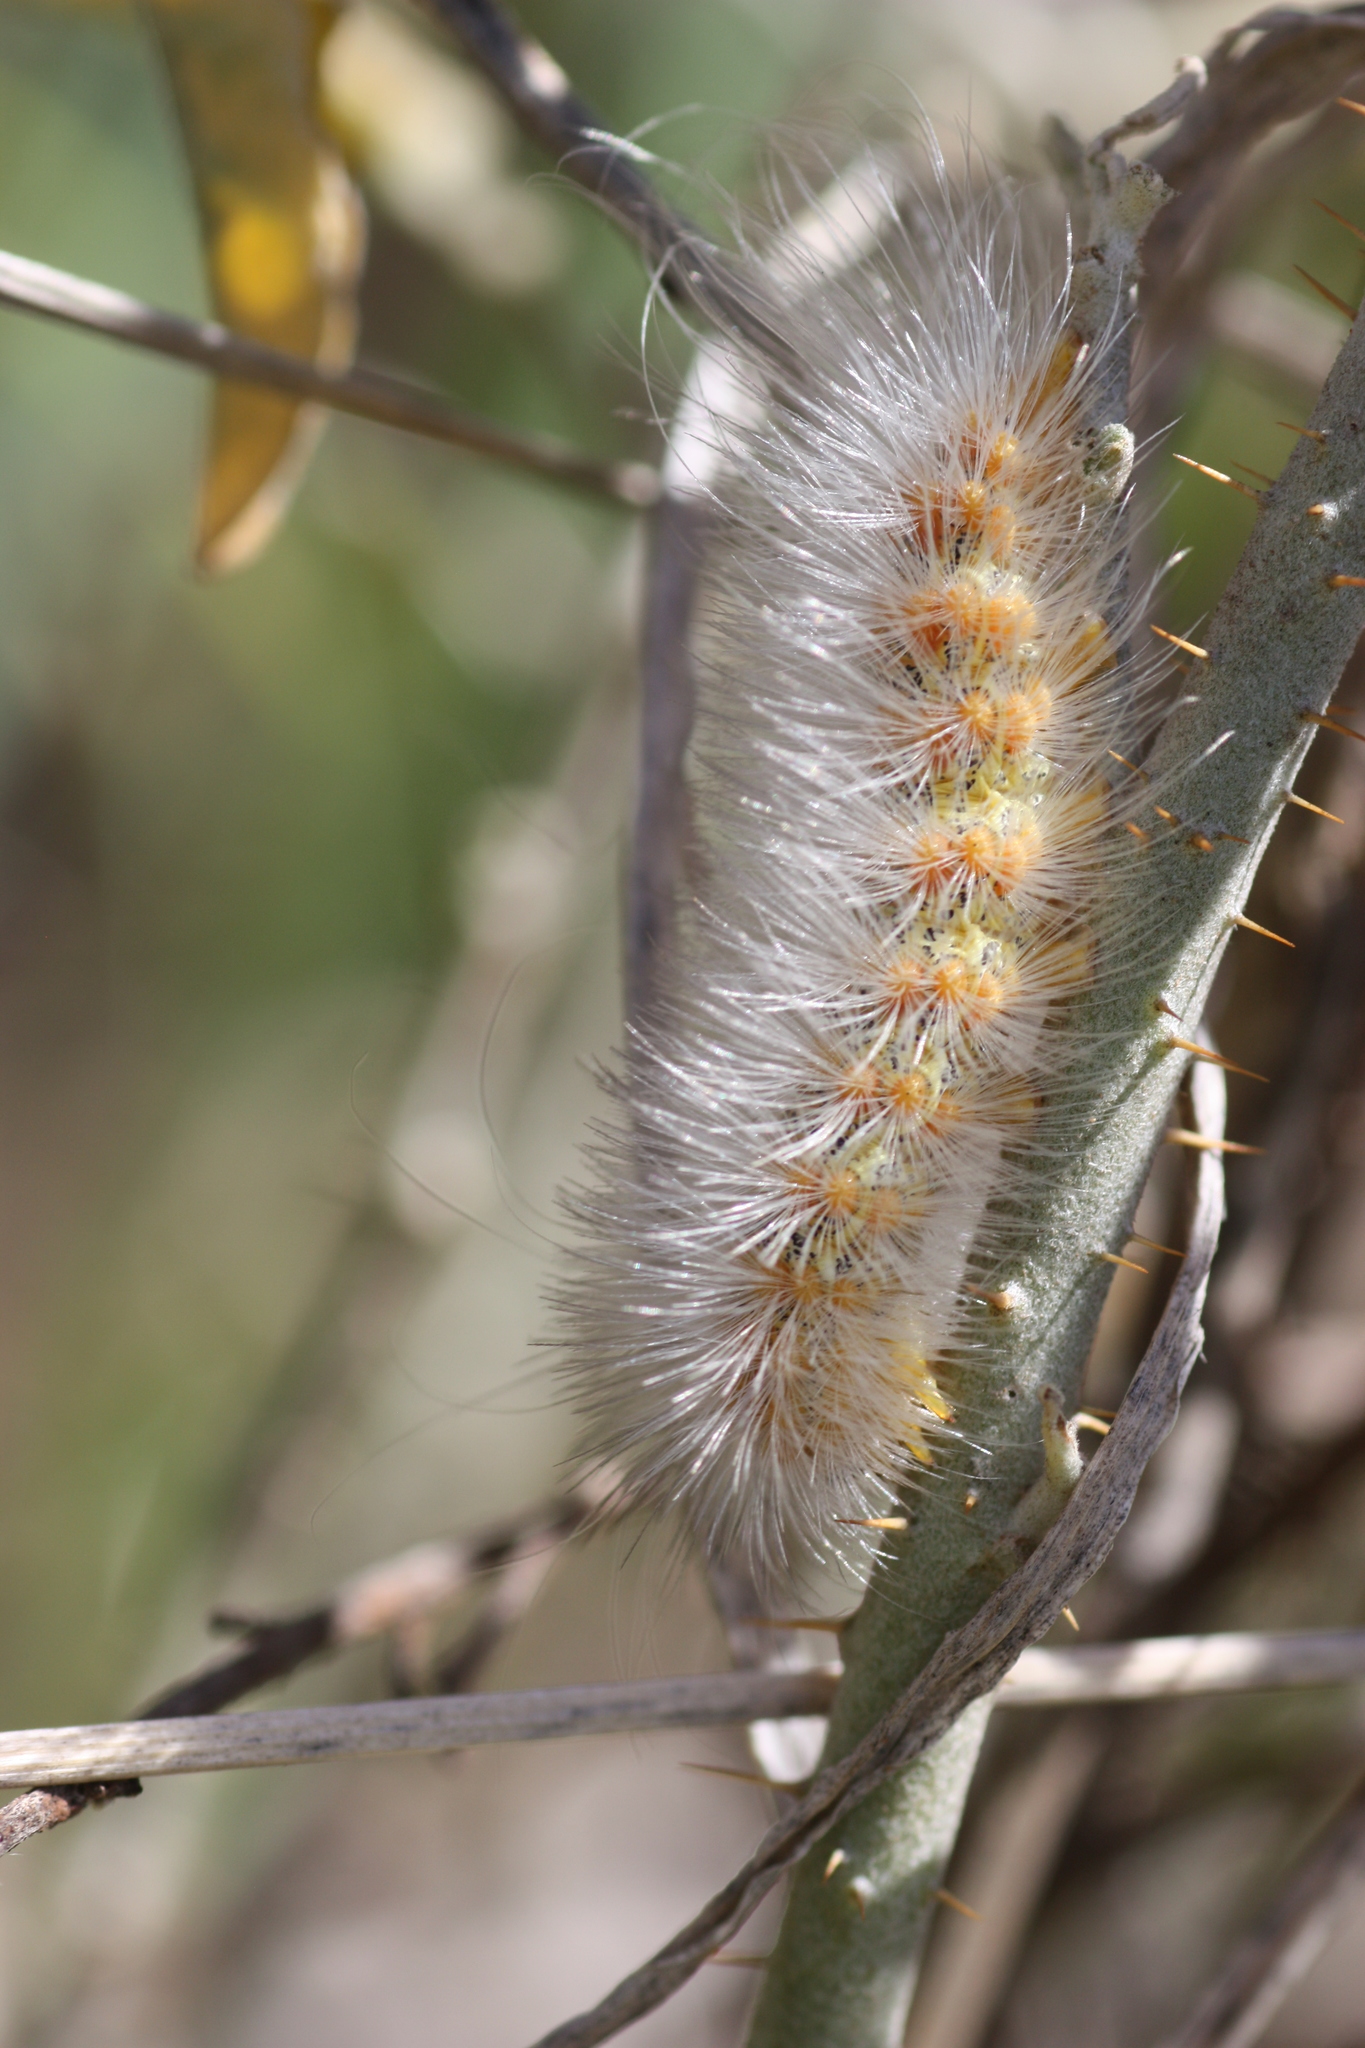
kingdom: Animalia
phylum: Arthropoda
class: Insecta
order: Lepidoptera
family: Erebidae
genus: Estigmene
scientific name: Estigmene
